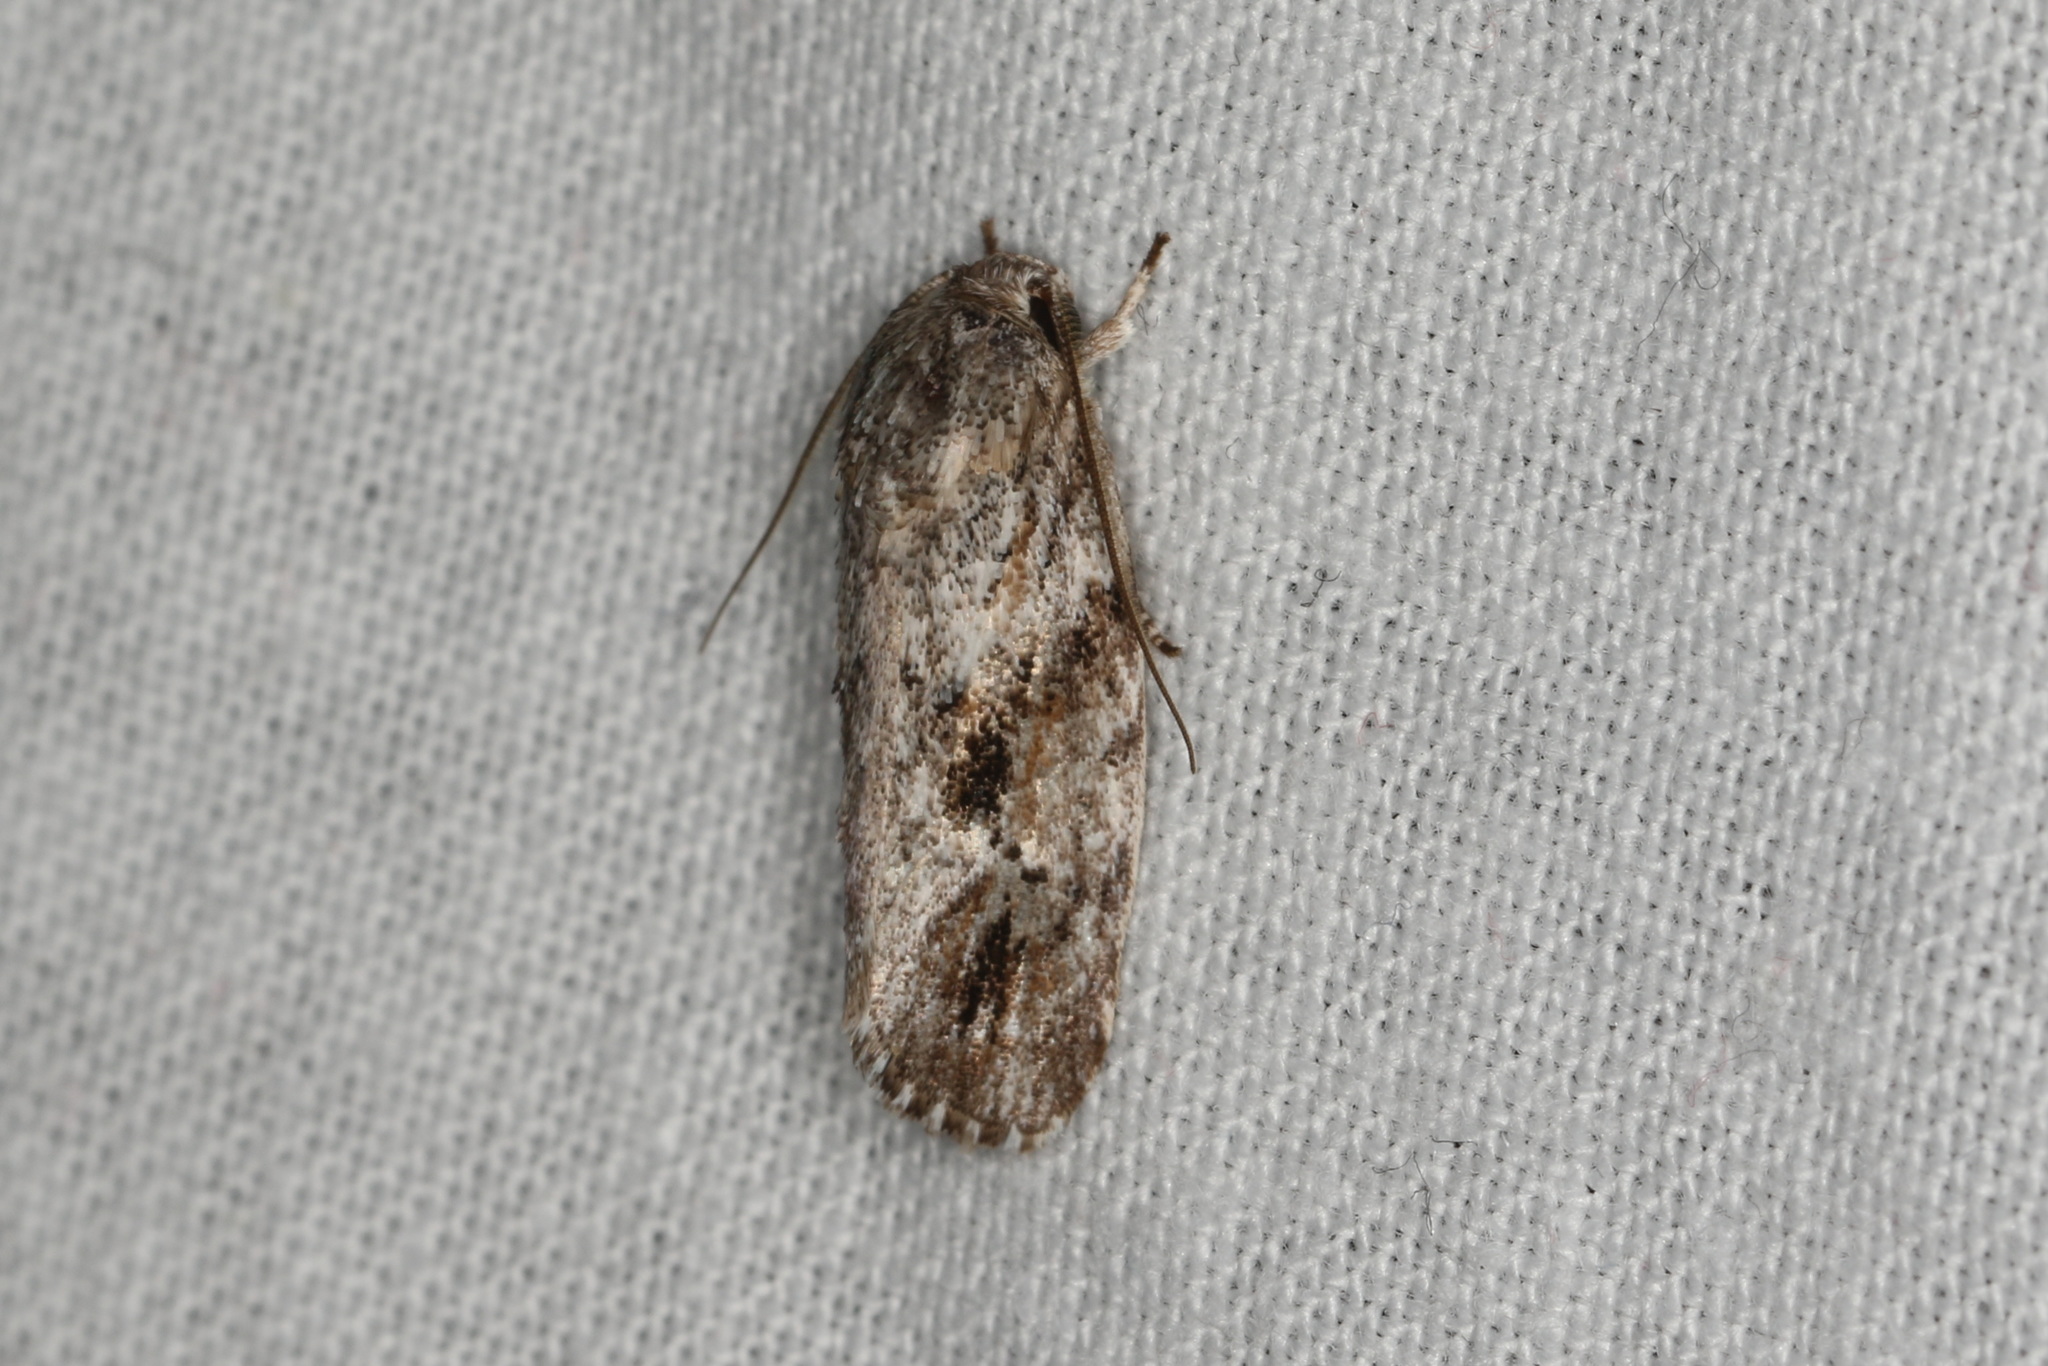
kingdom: Animalia
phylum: Arthropoda
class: Insecta
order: Lepidoptera
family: Depressariidae
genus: Agriophara
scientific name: Agriophara confertella
